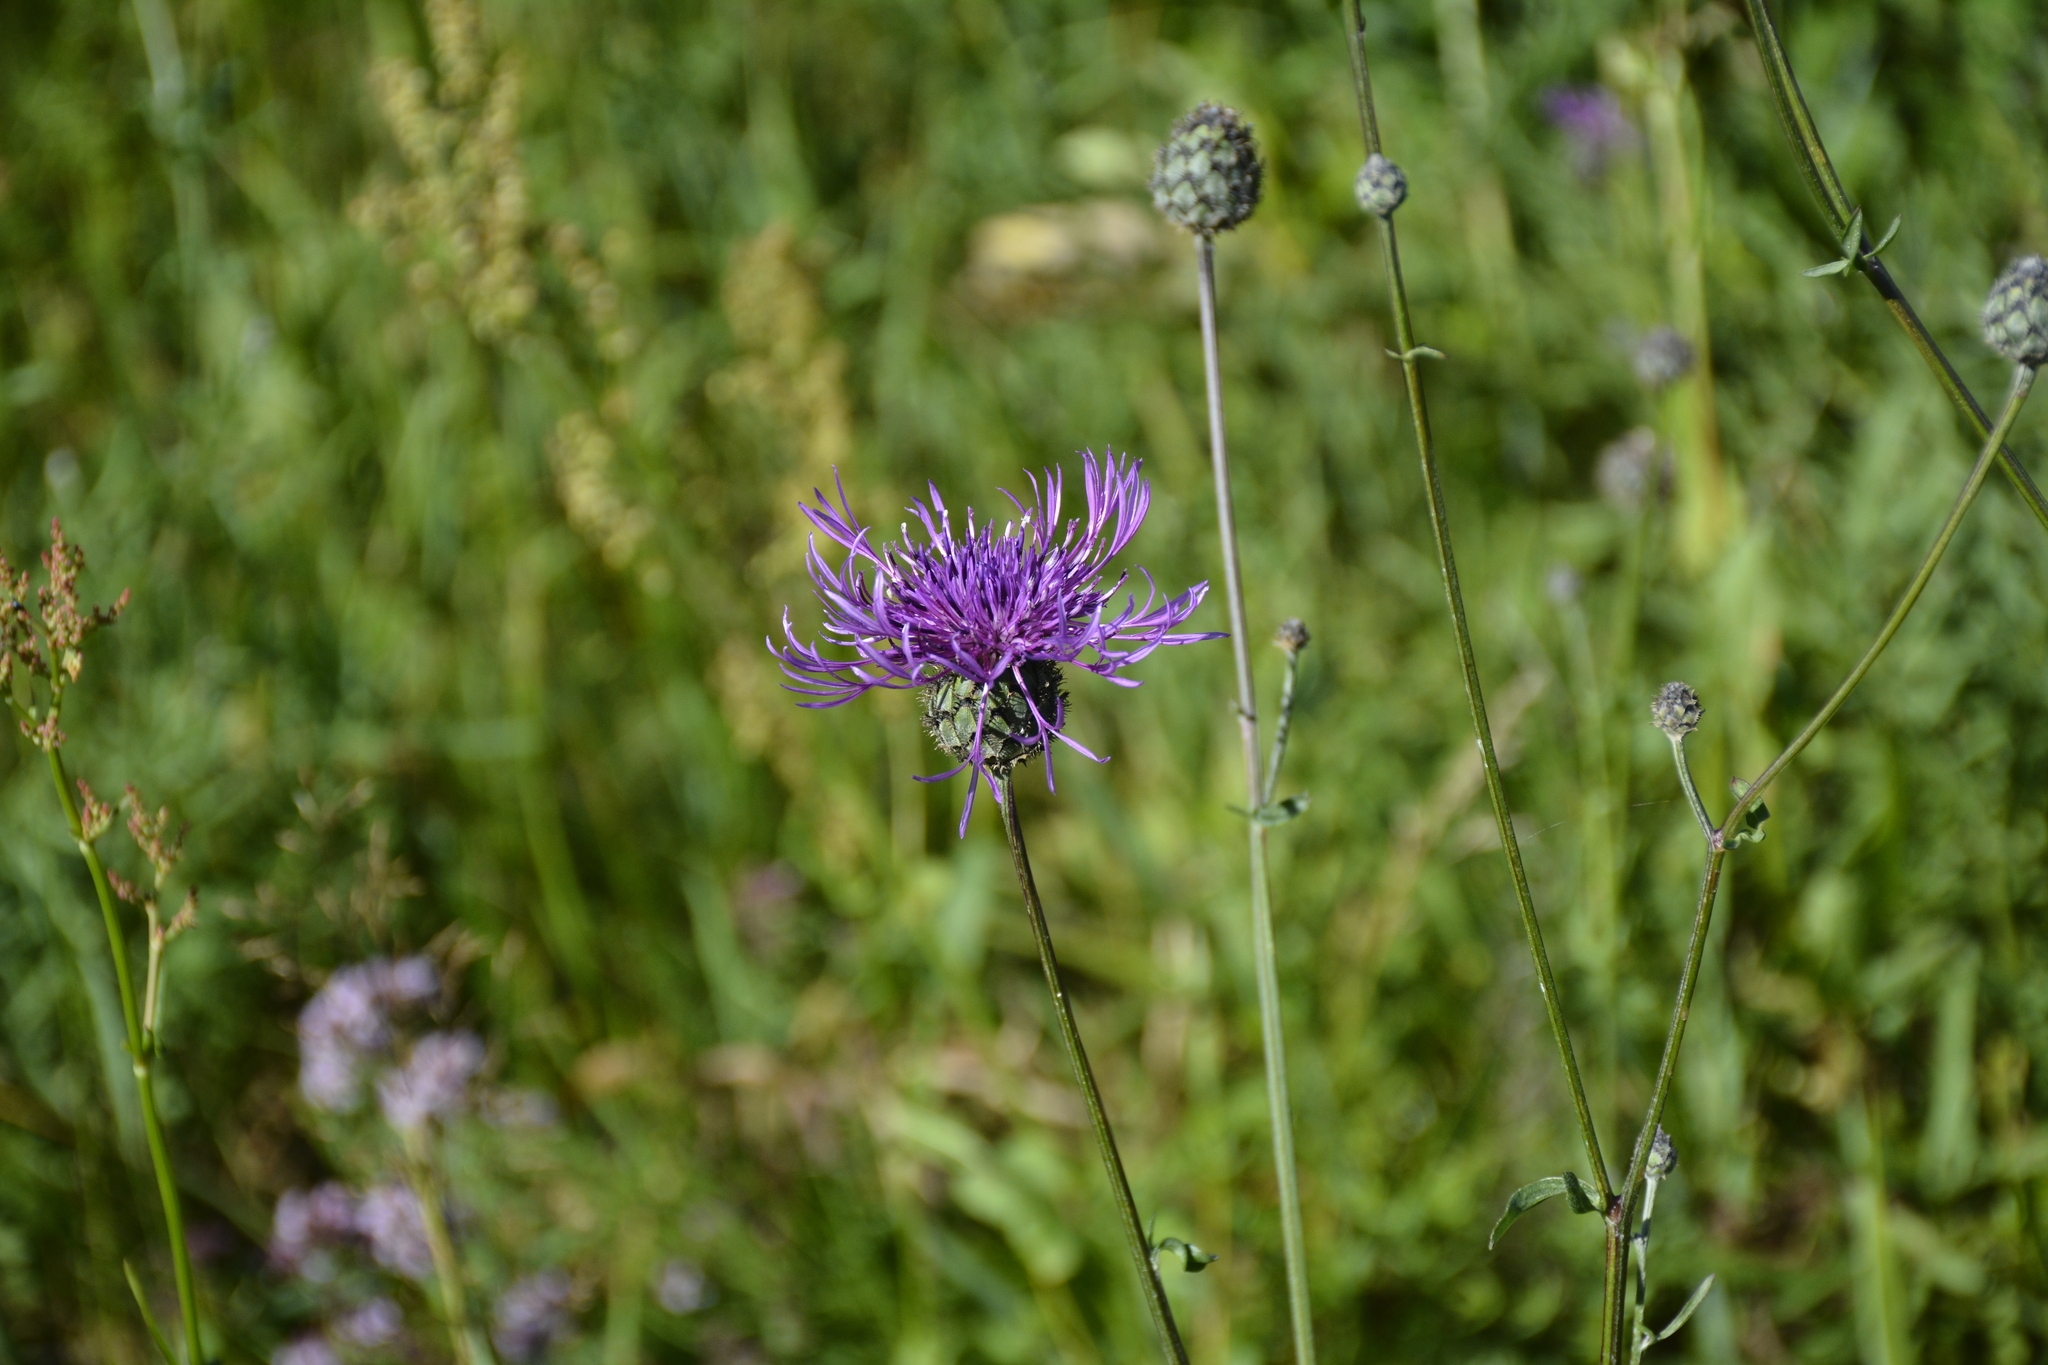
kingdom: Plantae
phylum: Tracheophyta
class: Magnoliopsida
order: Asterales
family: Asteraceae
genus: Centaurea
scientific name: Centaurea scabiosa
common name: Greater knapweed
